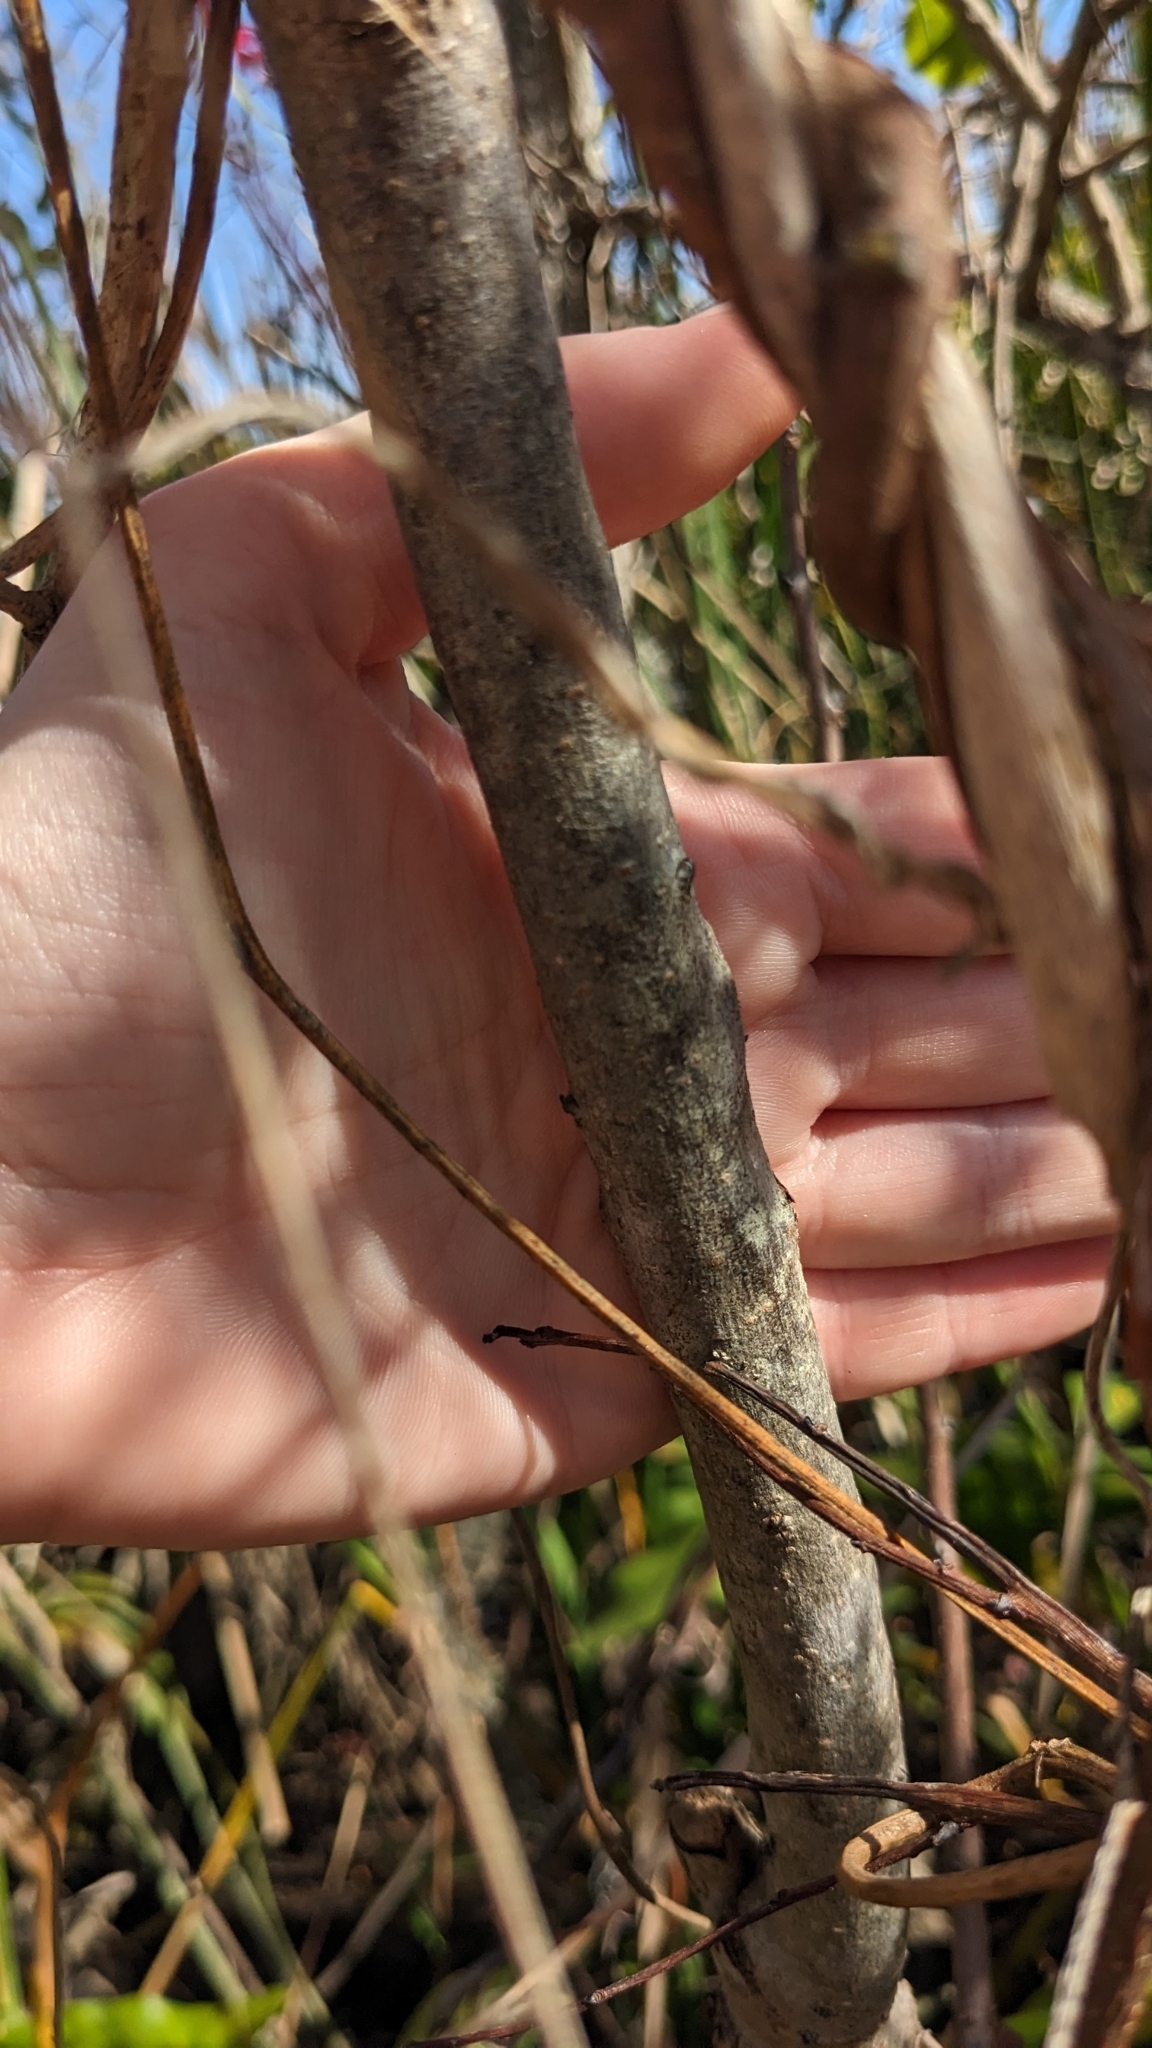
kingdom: Plantae
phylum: Tracheophyta
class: Magnoliopsida
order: Ericales
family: Ebenaceae
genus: Diospyros
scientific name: Diospyros virginiana
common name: Persimmon
